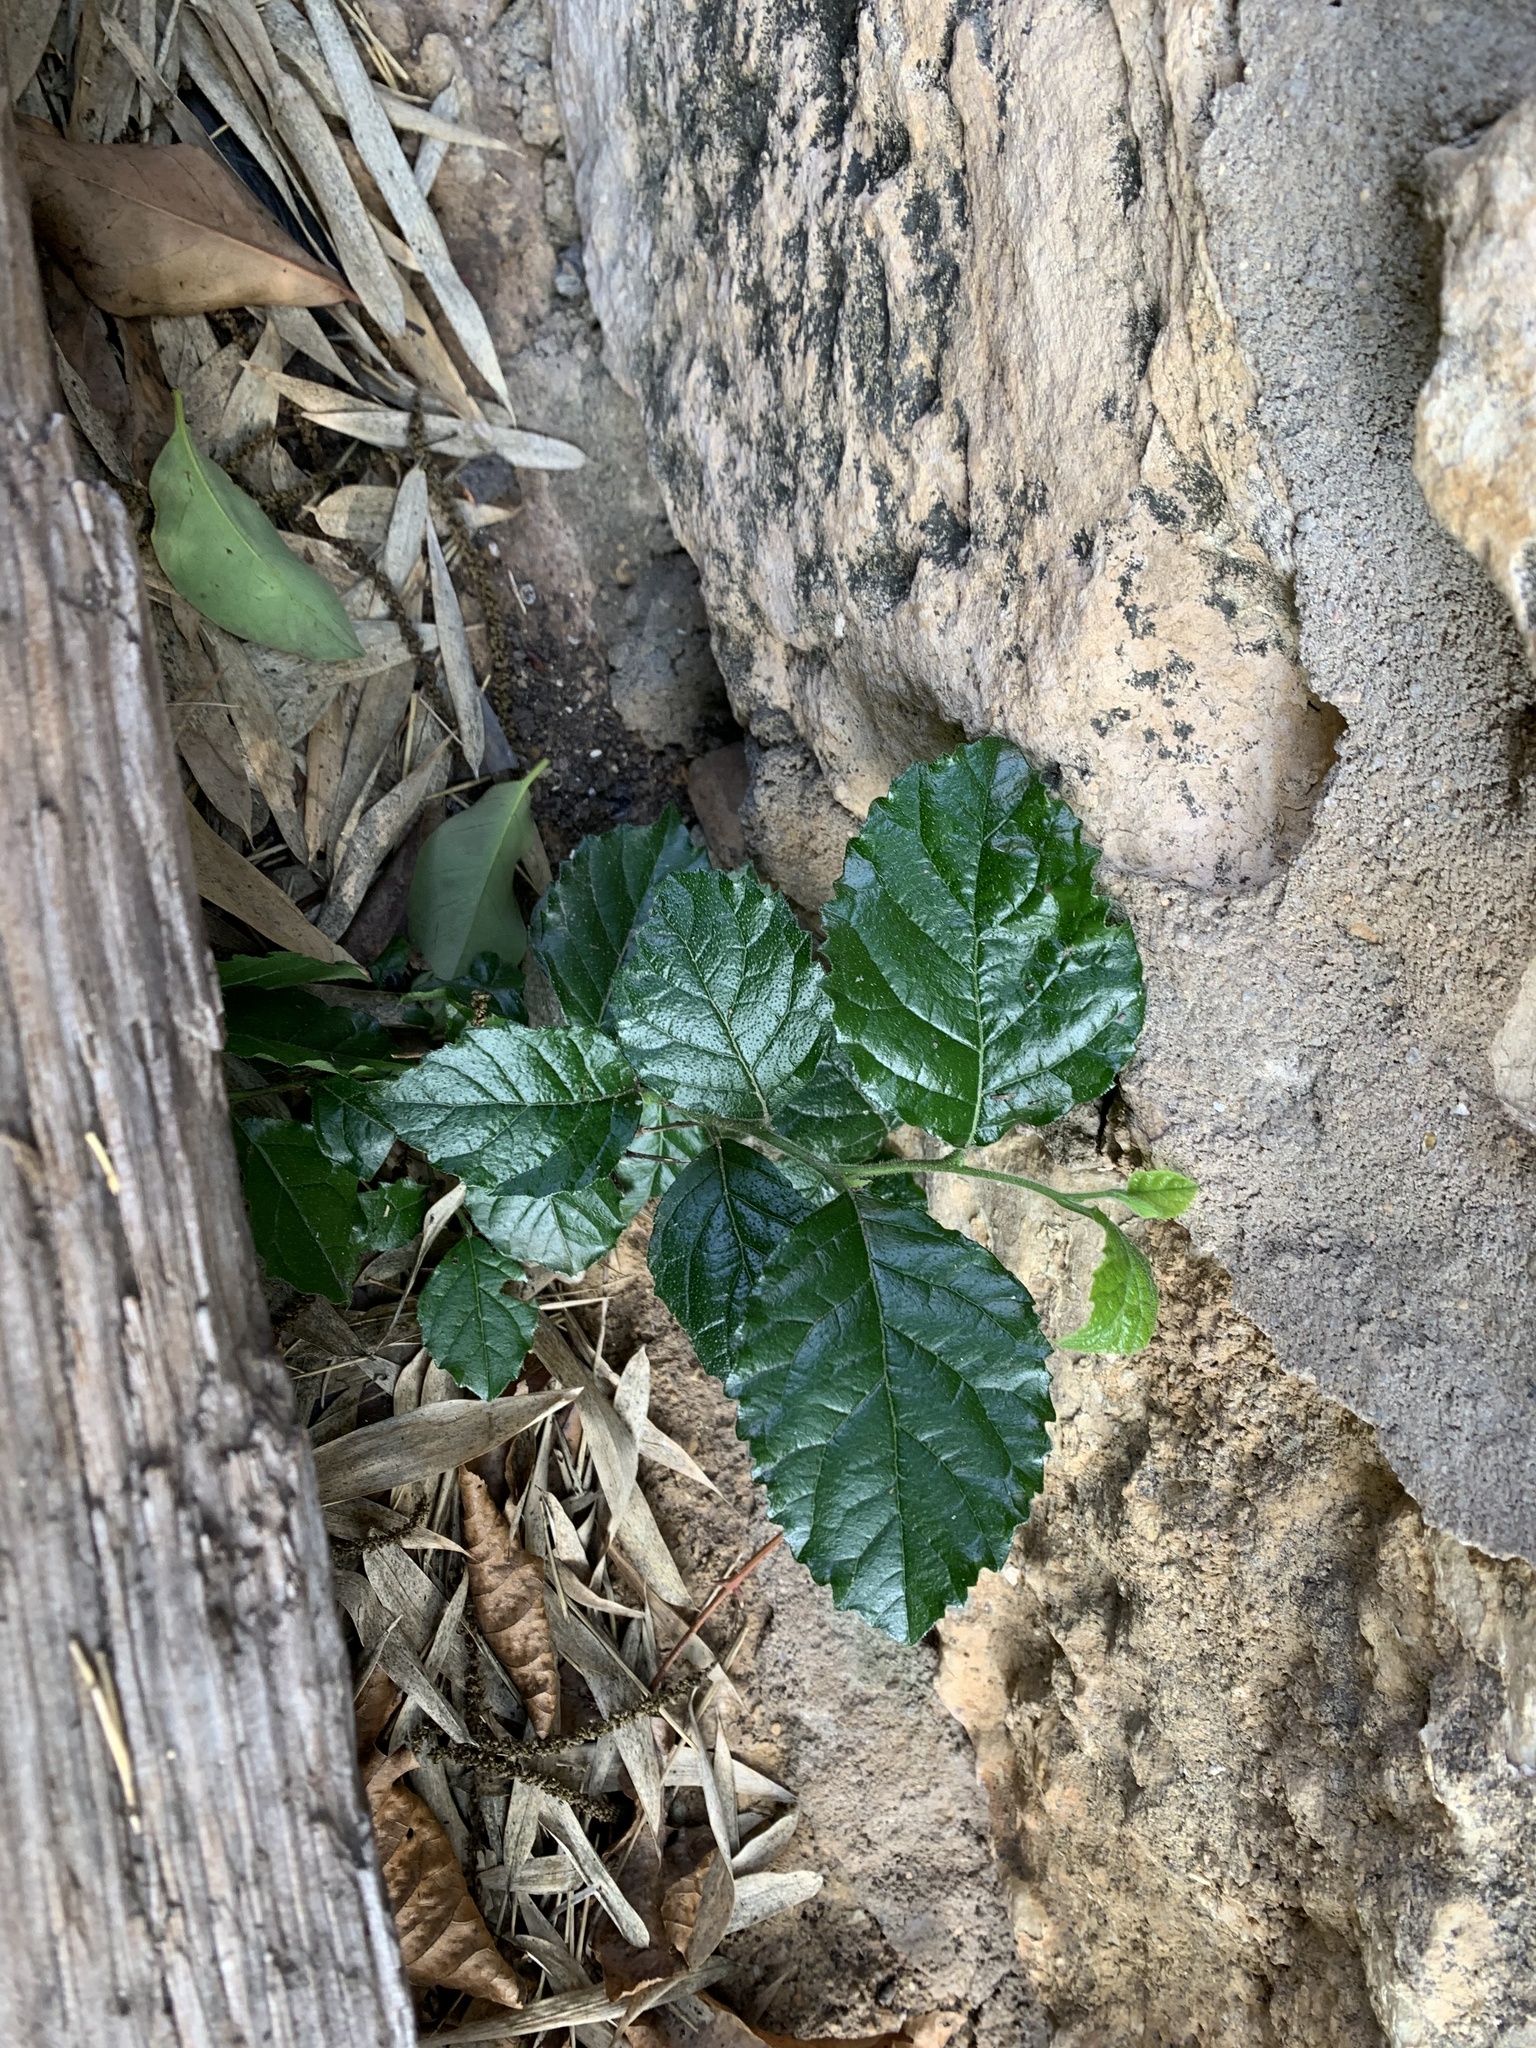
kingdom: Plantae
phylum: Tracheophyta
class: Magnoliopsida
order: Boraginales
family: Ehretiaceae
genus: Ehretia
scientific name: Ehretia anacua
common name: Sugarberry
